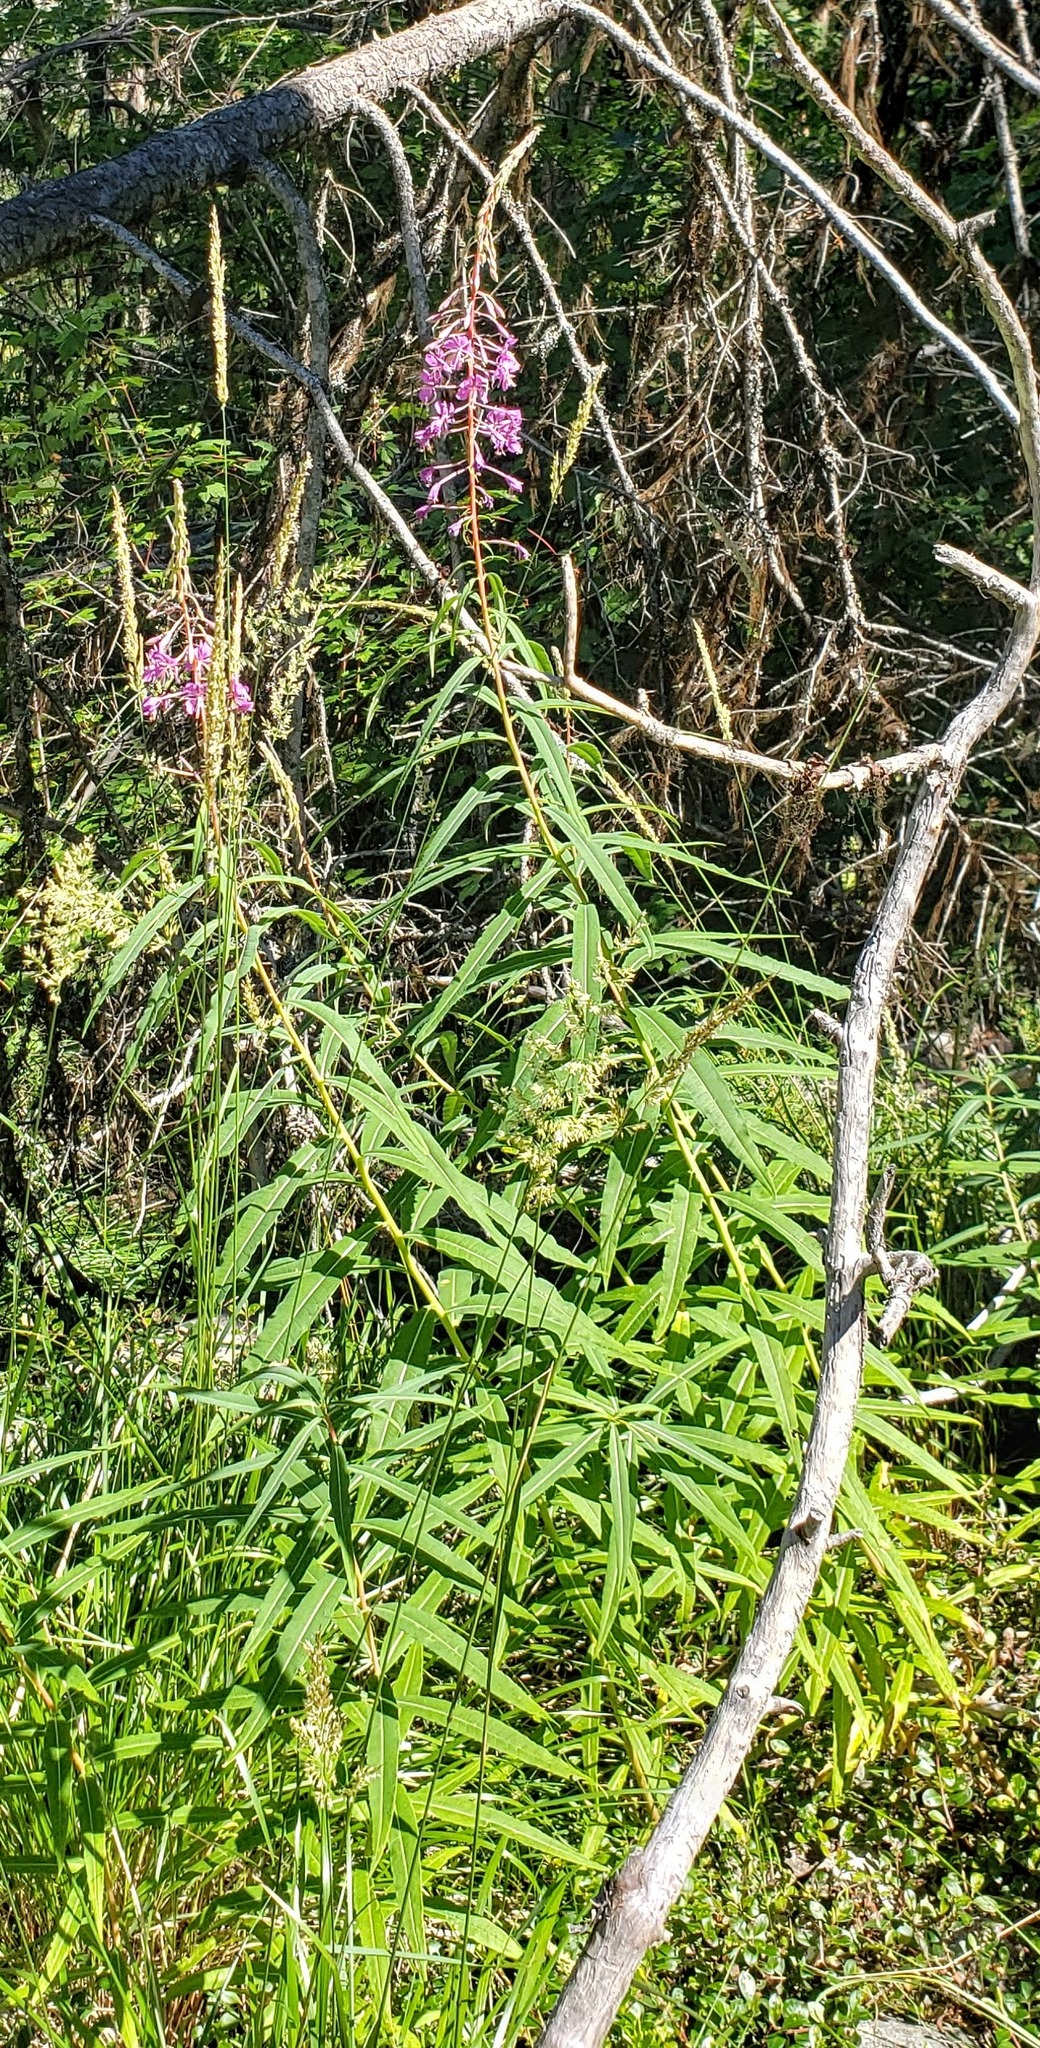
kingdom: Plantae
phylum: Tracheophyta
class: Magnoliopsida
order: Myrtales
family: Onagraceae
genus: Chamaenerion
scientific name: Chamaenerion angustifolium
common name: Fireweed
